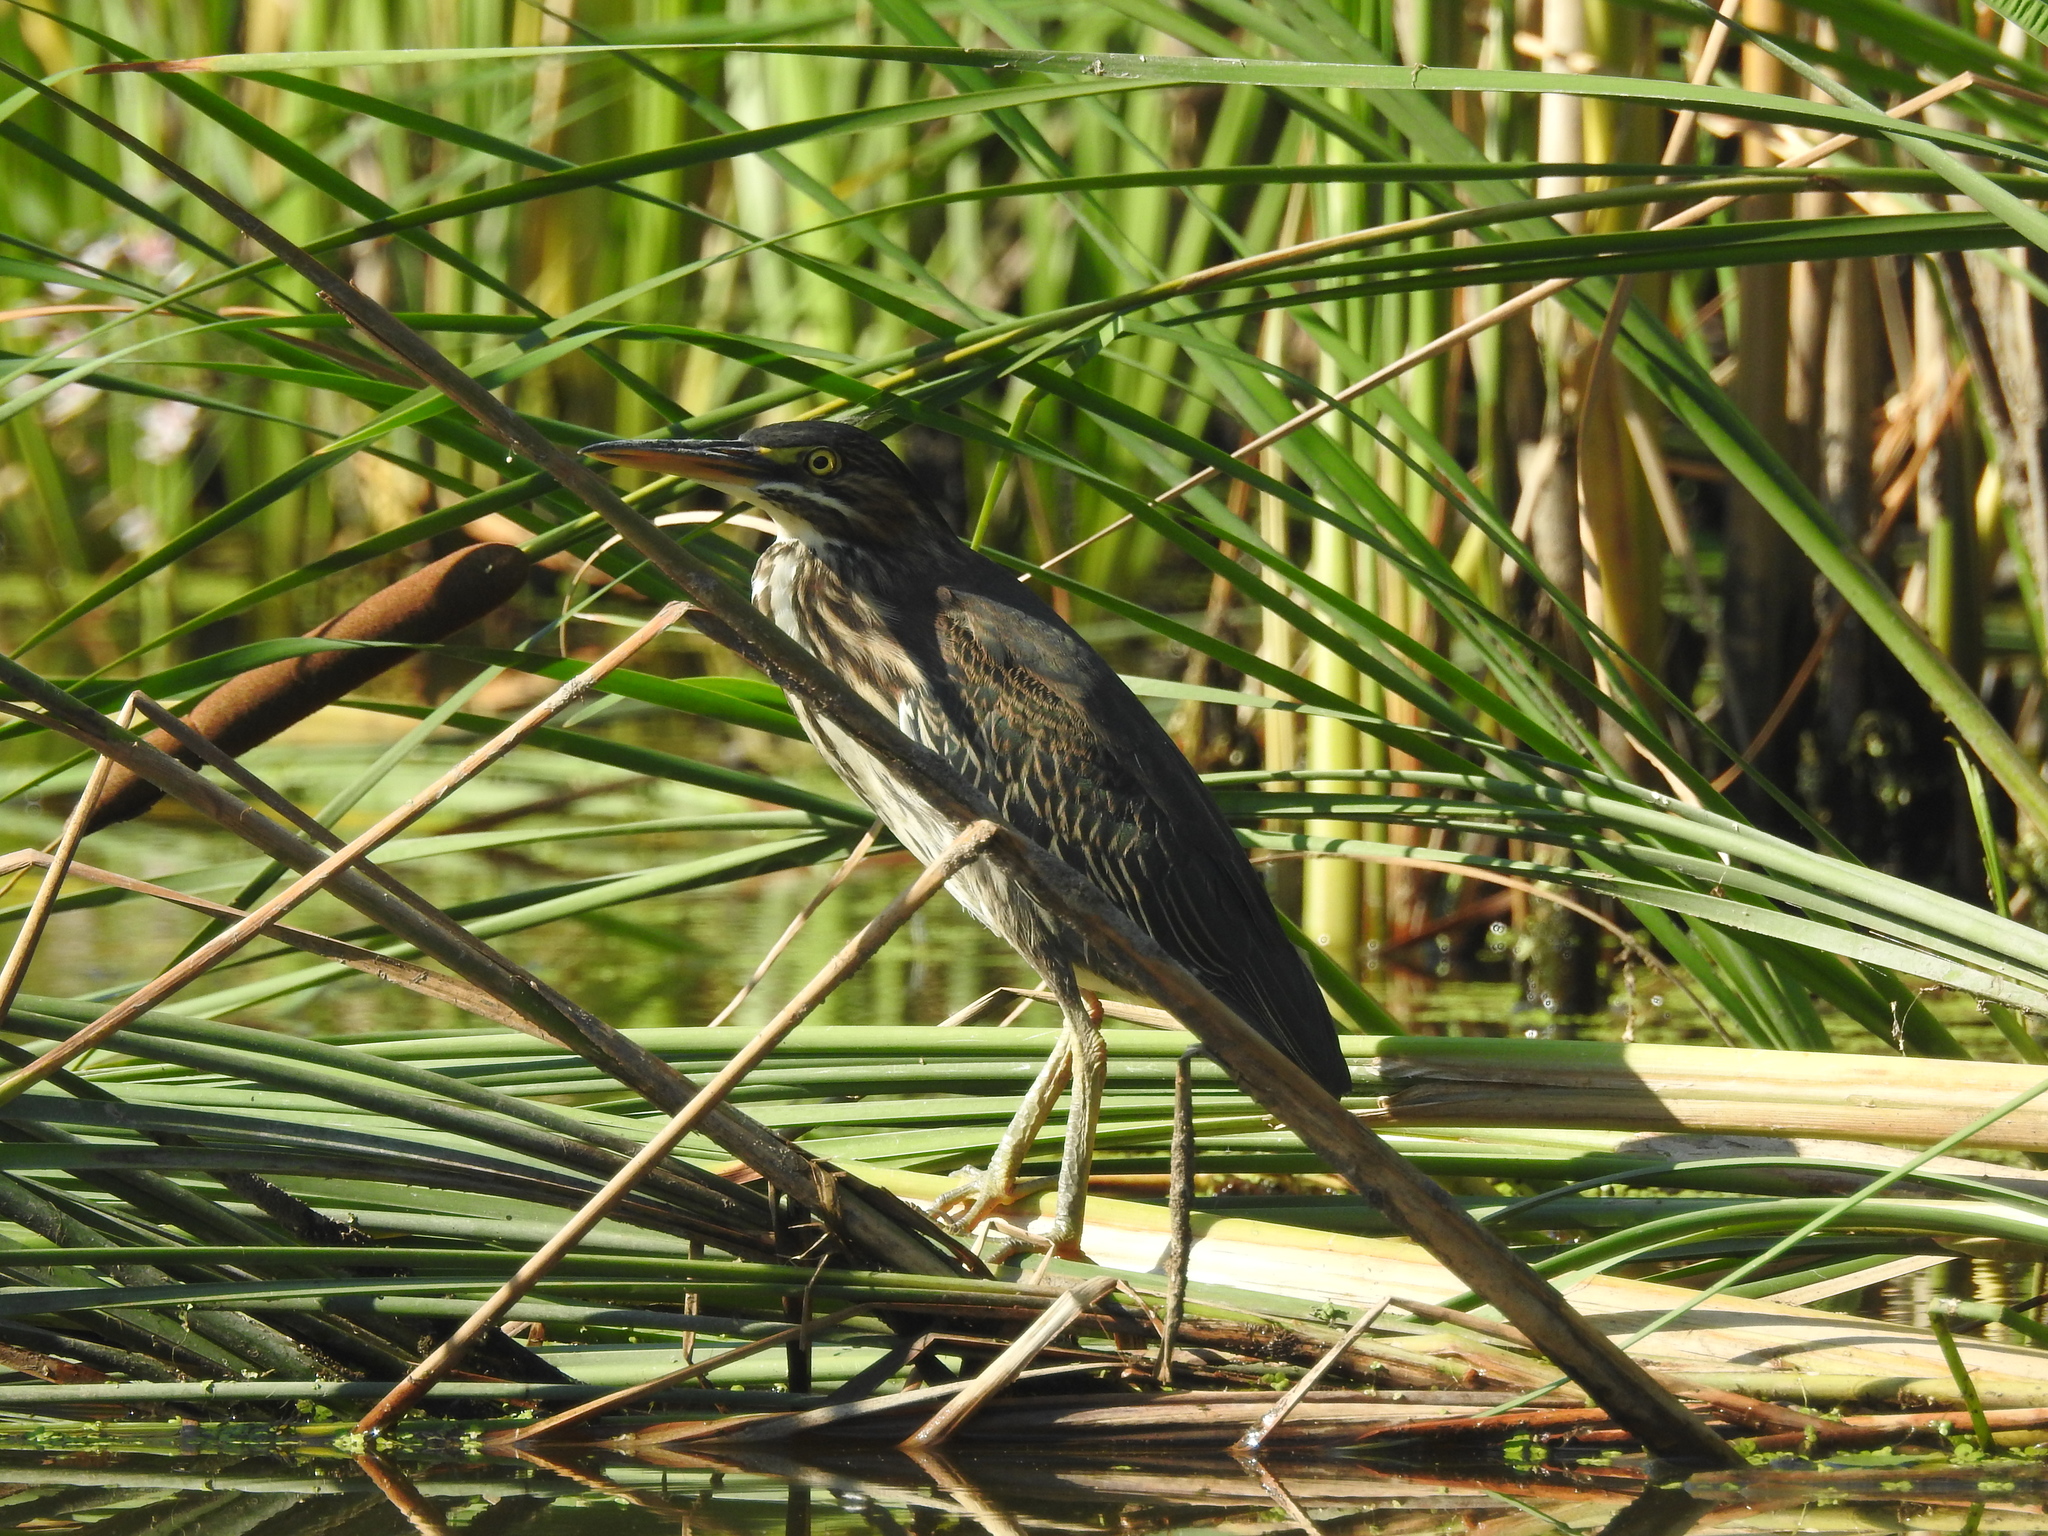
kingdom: Animalia
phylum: Chordata
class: Aves
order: Pelecaniformes
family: Ardeidae
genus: Butorides
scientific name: Butorides virescens
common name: Green heron
